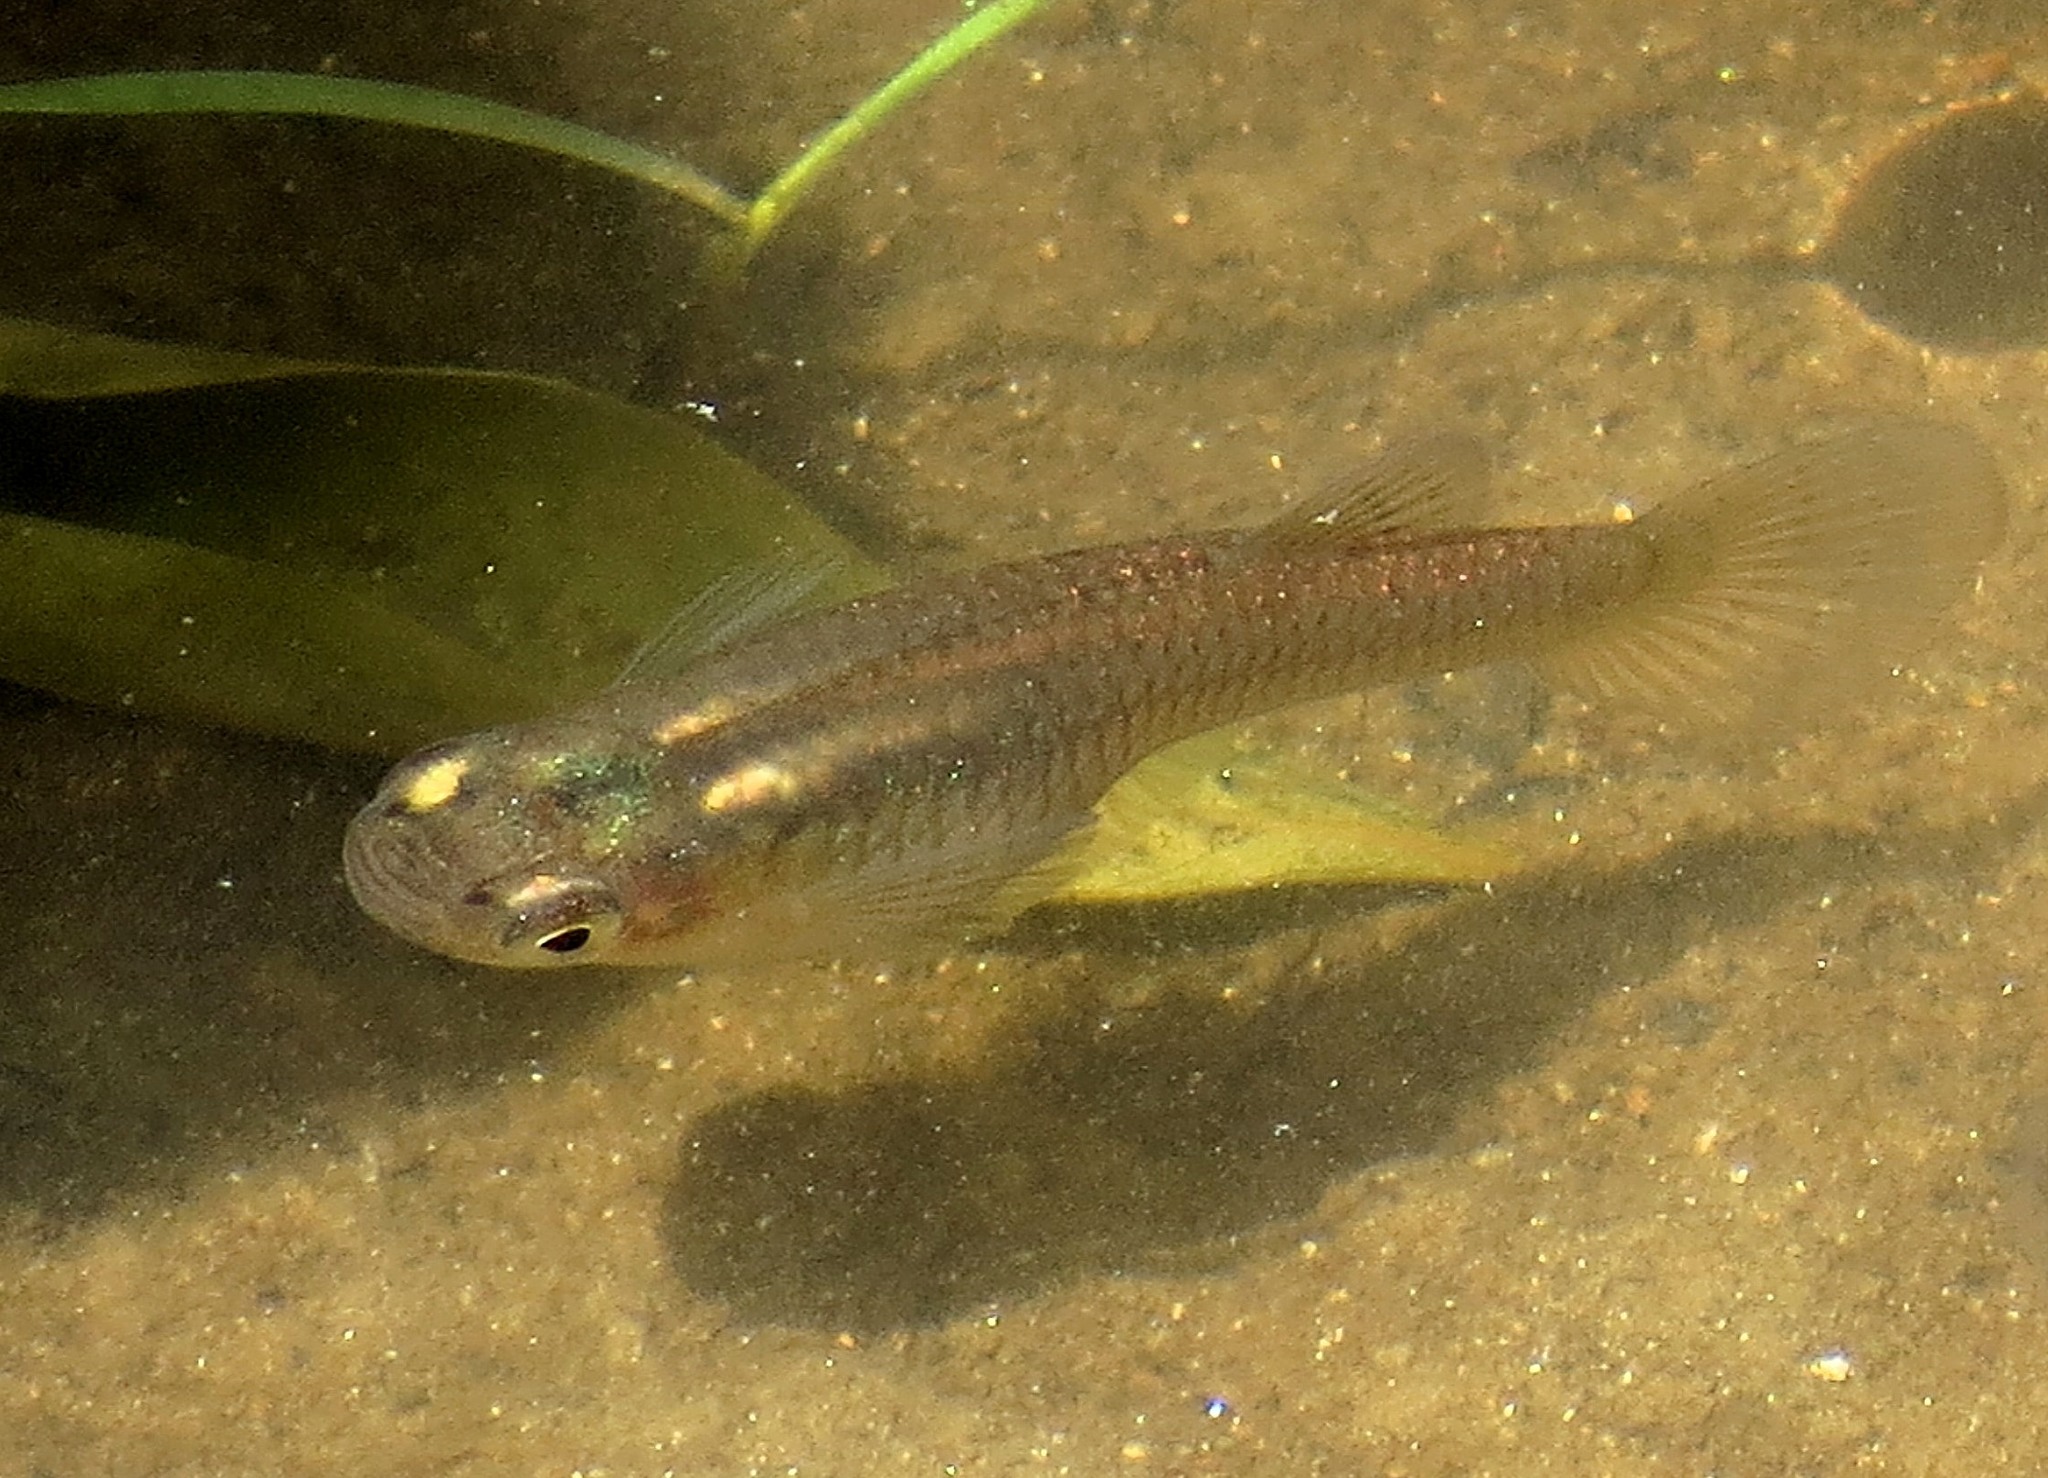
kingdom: Animalia
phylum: Chordata
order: Cyprinodontiformes
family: Poeciliidae
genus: Gambusia
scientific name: Gambusia holbrooki
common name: Eastern mosquitofish
